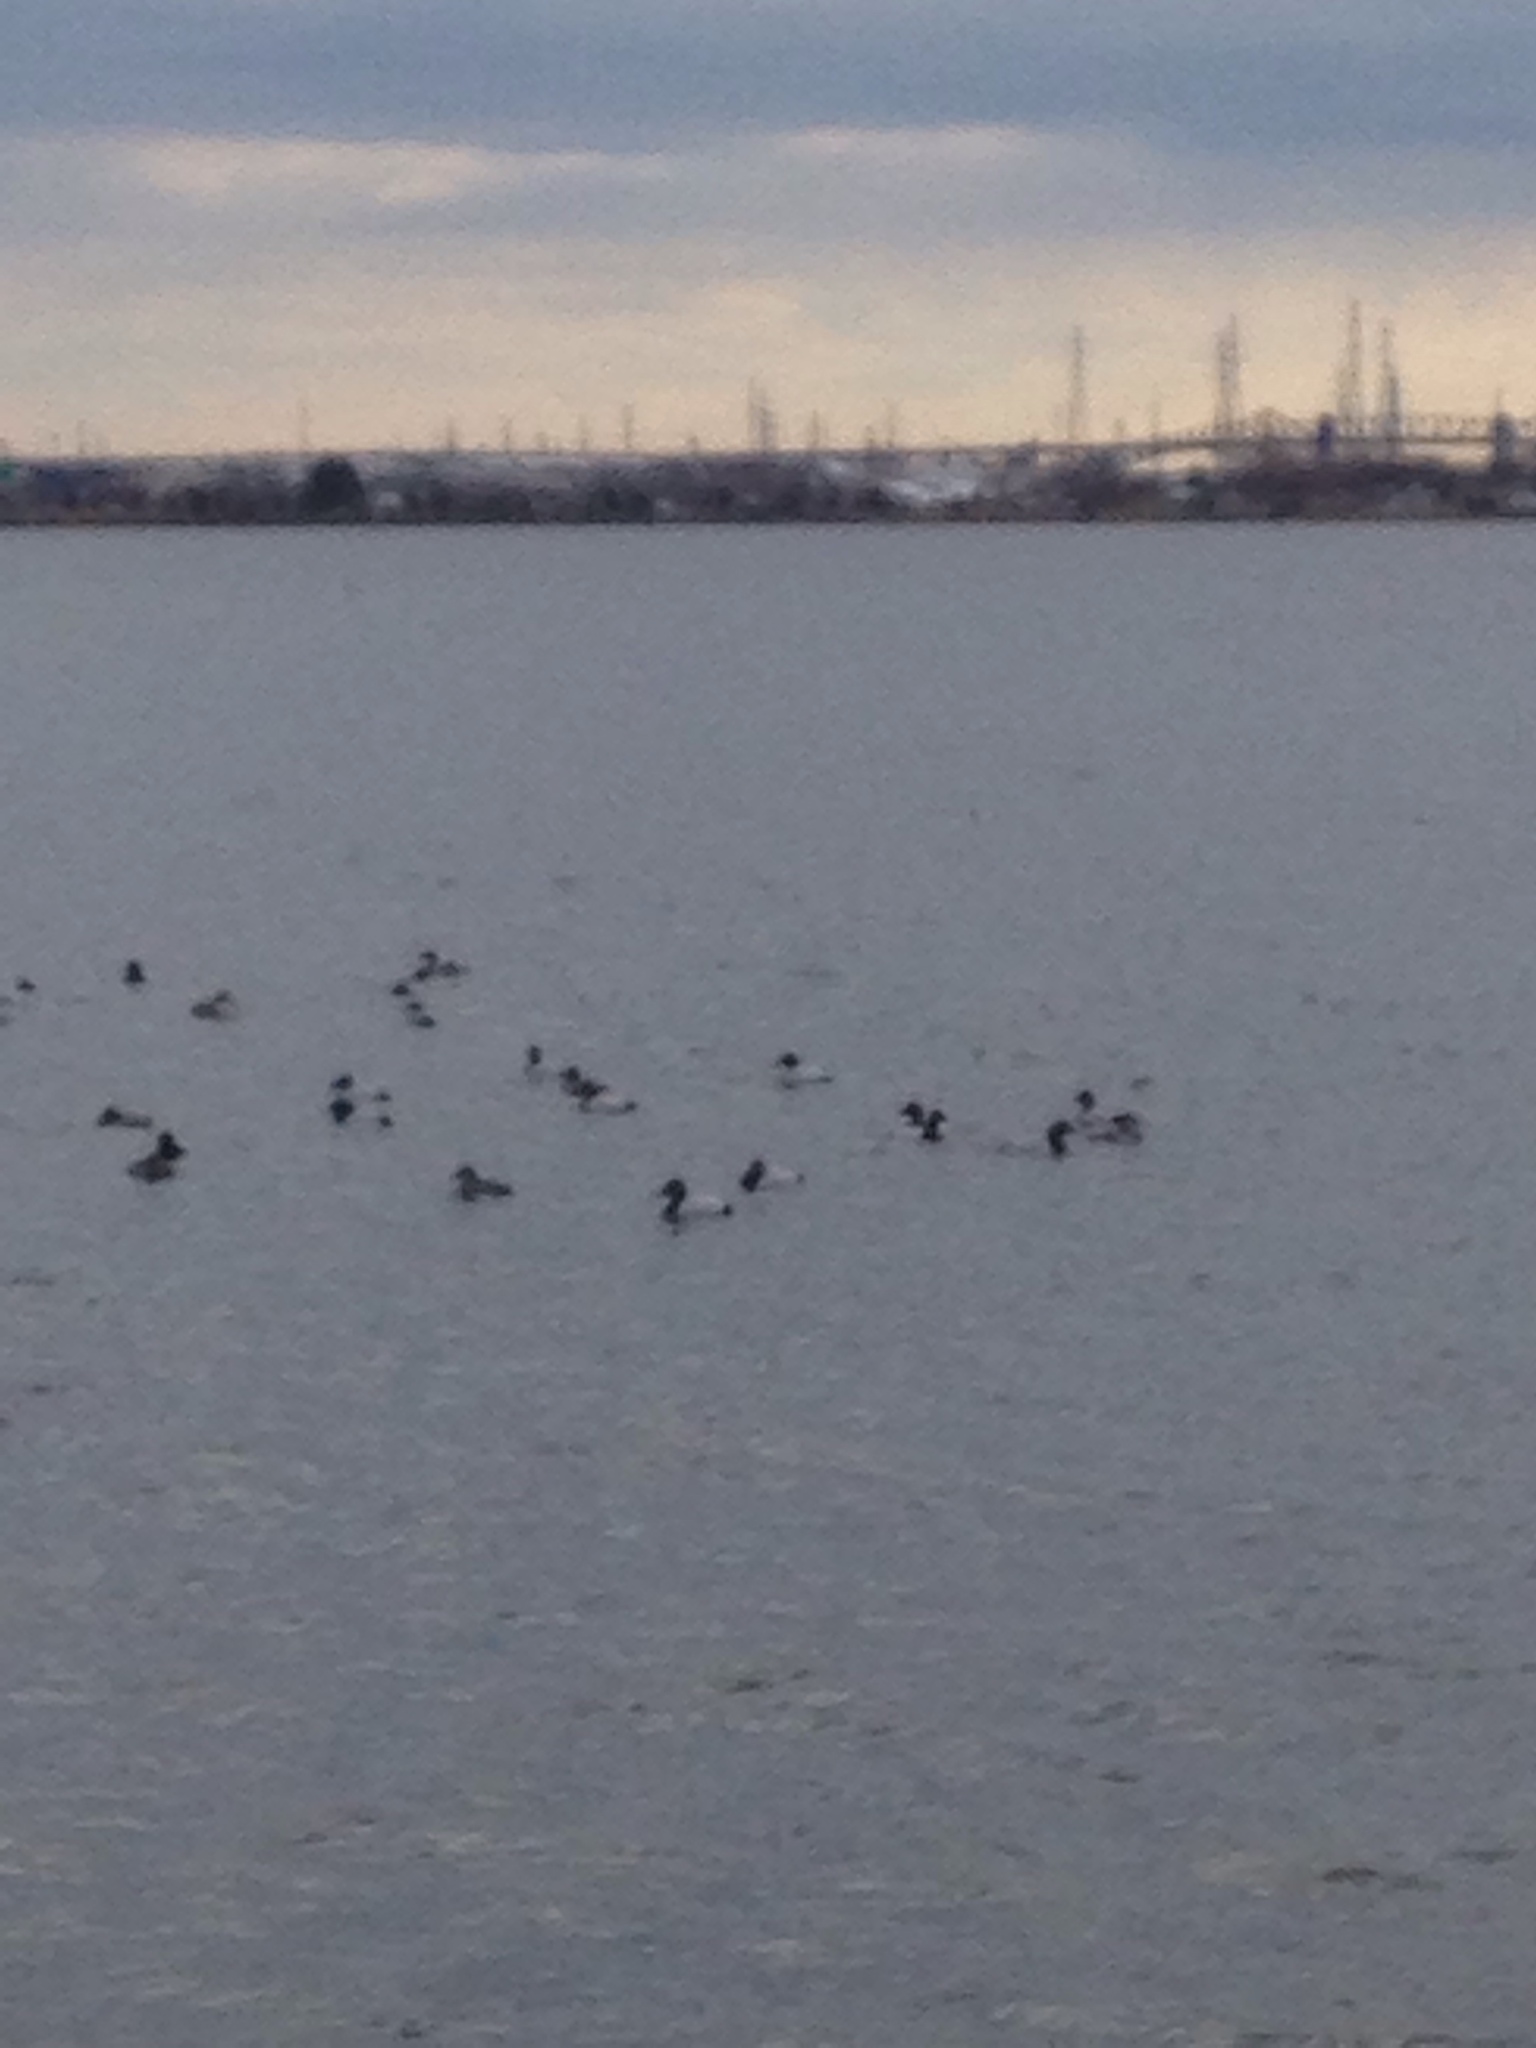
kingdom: Animalia
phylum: Chordata
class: Aves
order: Anseriformes
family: Anatidae
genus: Aythya
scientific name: Aythya valisineria
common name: Canvasback
